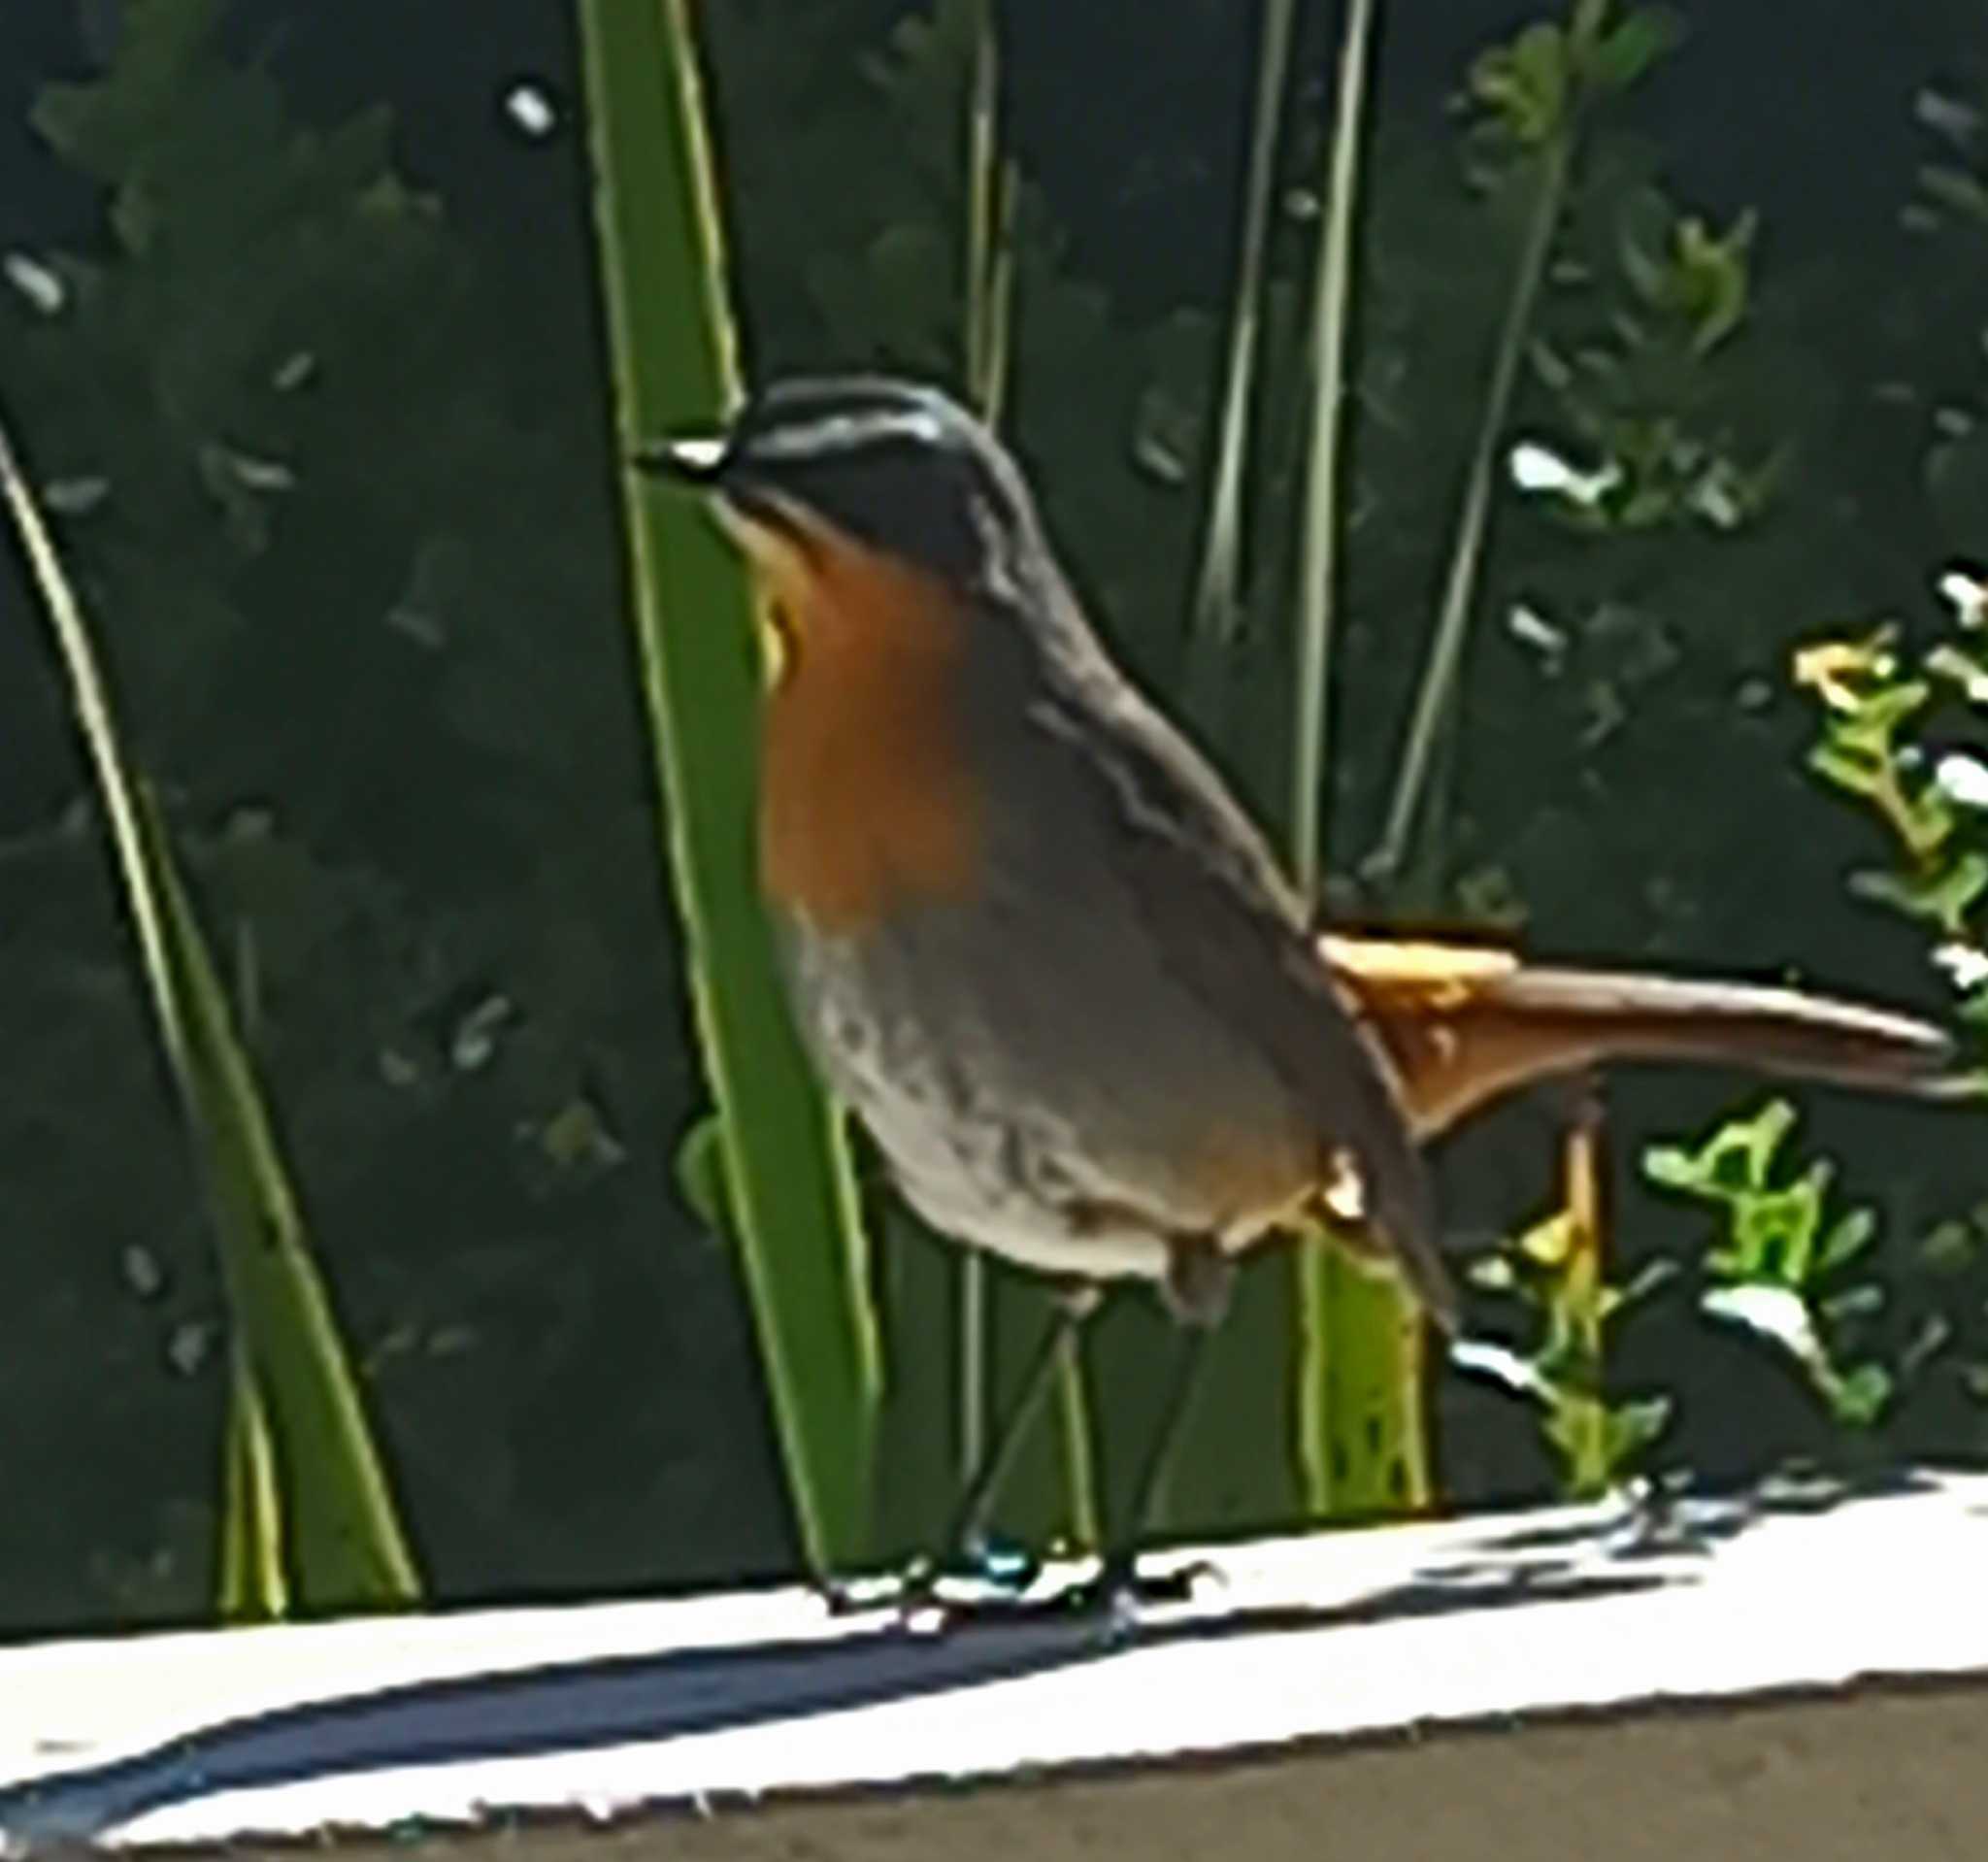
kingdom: Animalia
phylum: Chordata
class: Aves
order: Passeriformes
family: Muscicapidae
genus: Cossypha
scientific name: Cossypha caffra
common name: Cape robin-chat
